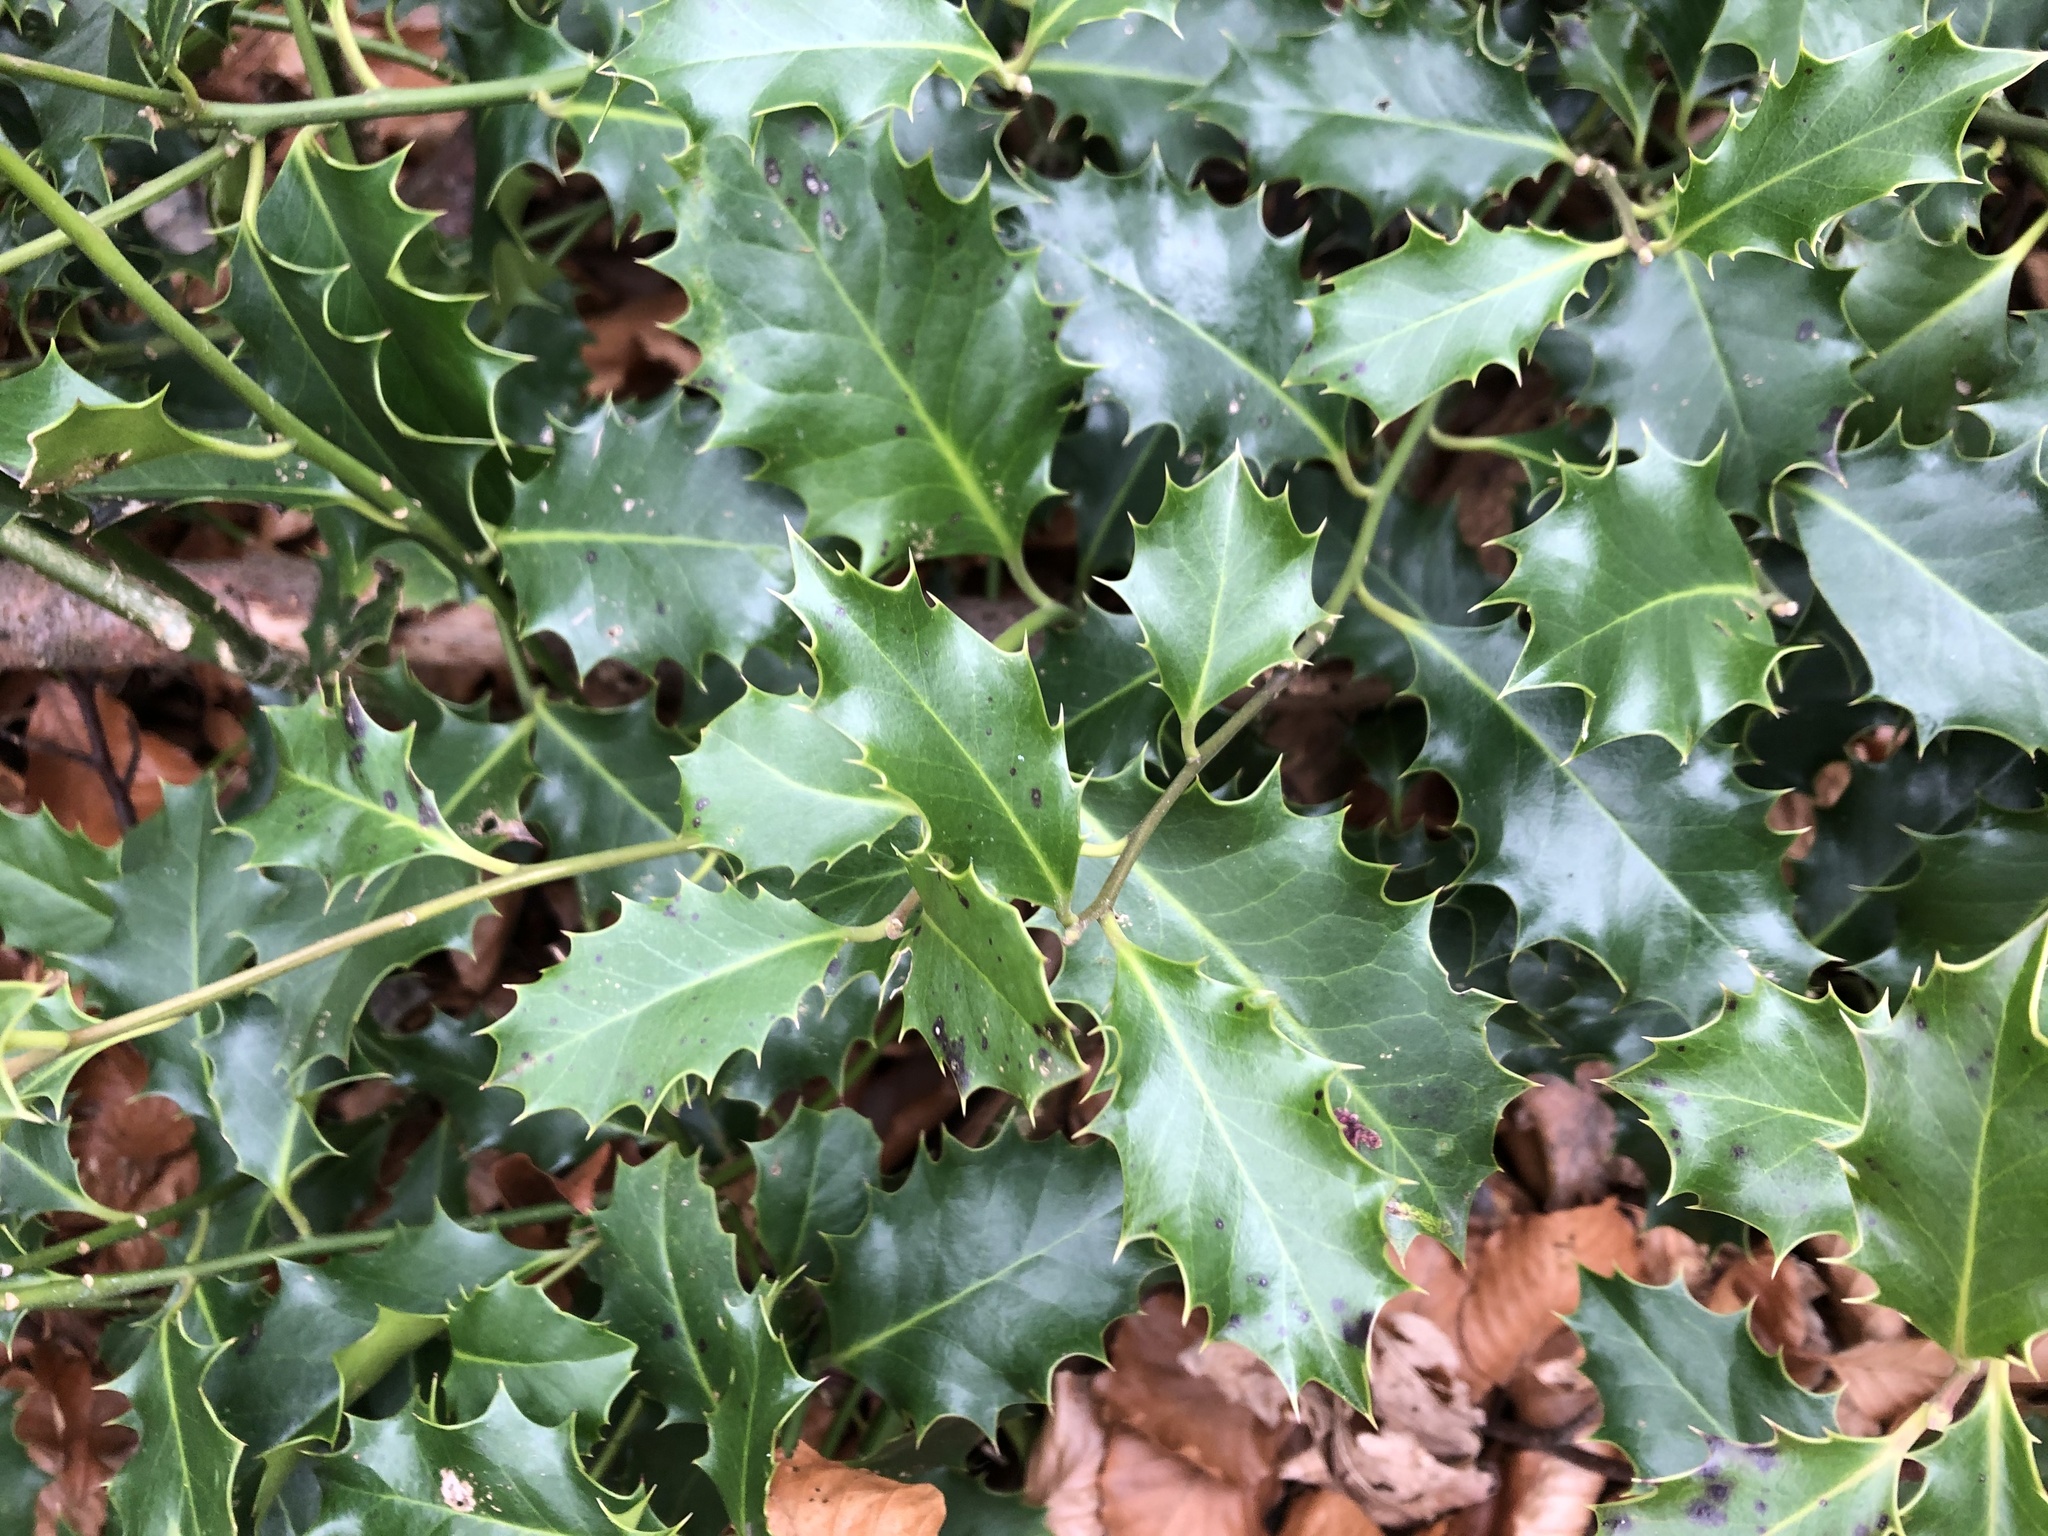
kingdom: Plantae
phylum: Tracheophyta
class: Magnoliopsida
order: Aquifoliales
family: Aquifoliaceae
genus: Ilex
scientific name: Ilex aquifolium
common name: English holly
